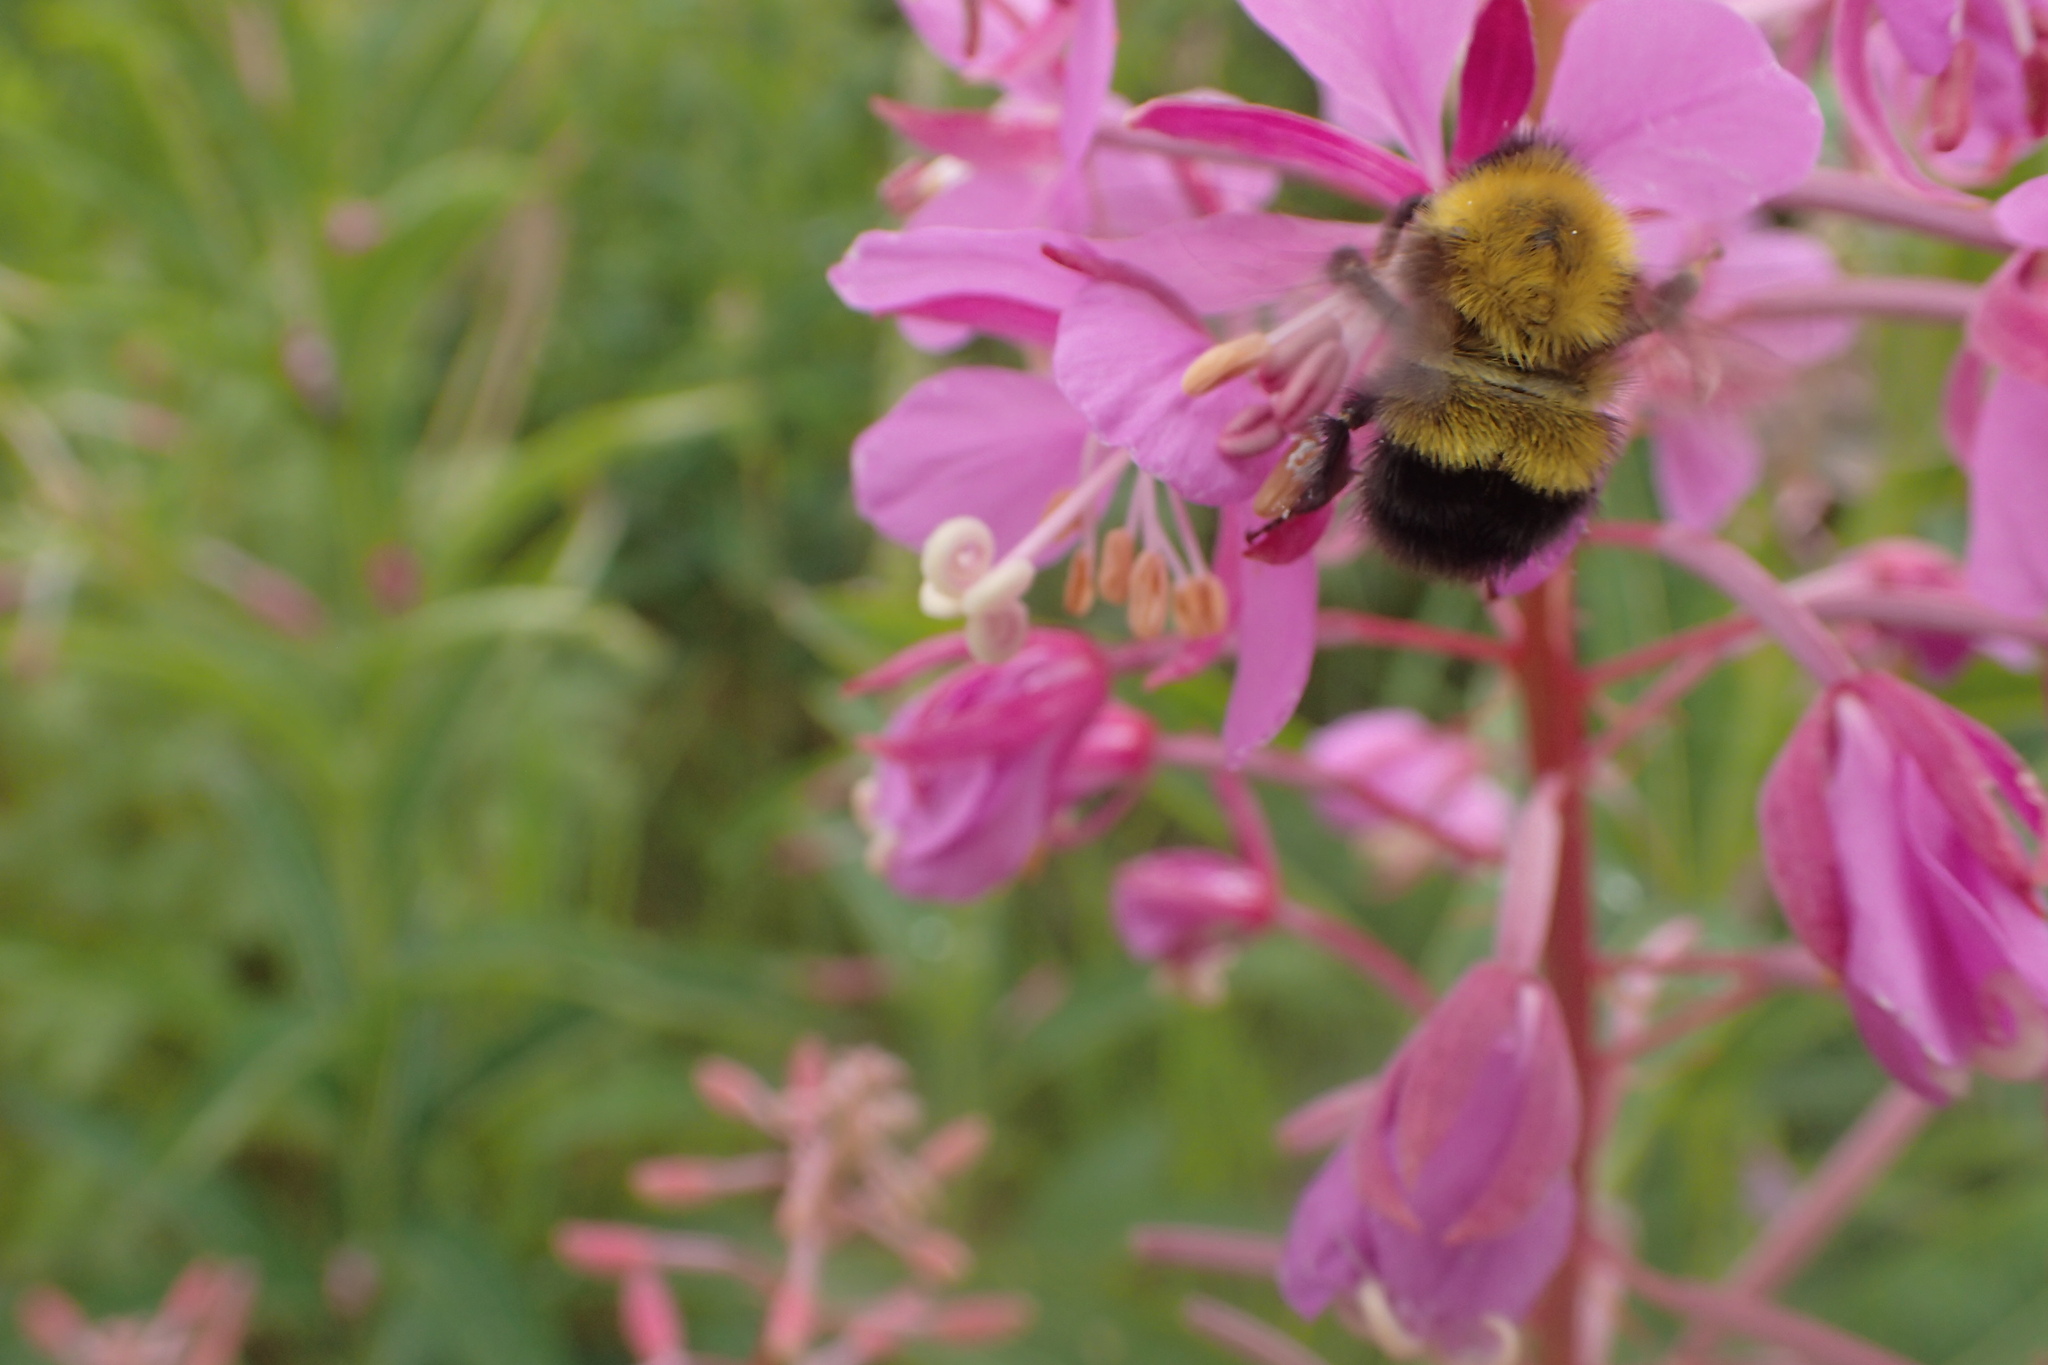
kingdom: Animalia
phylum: Arthropoda
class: Insecta
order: Hymenoptera
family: Apidae
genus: Bombus
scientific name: Bombus perplexus
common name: Confusing bumble bee
